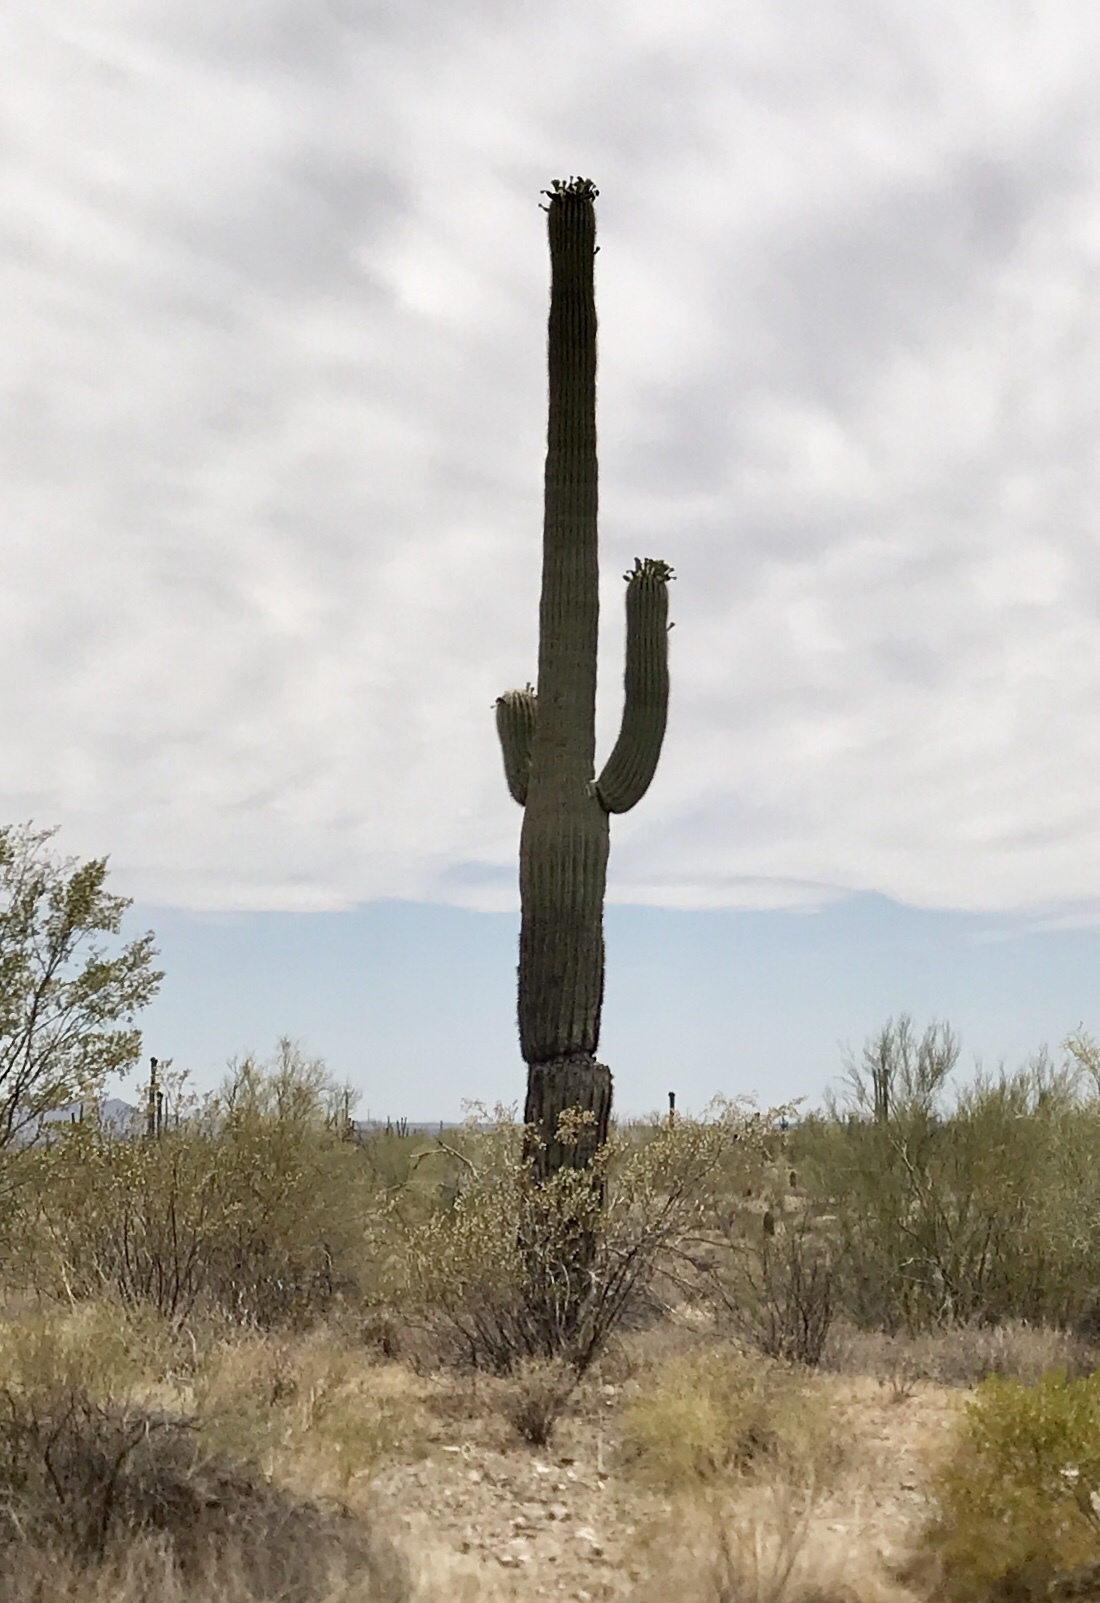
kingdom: Plantae
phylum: Tracheophyta
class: Magnoliopsida
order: Caryophyllales
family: Cactaceae
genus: Carnegiea
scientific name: Carnegiea gigantea
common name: Saguaro
